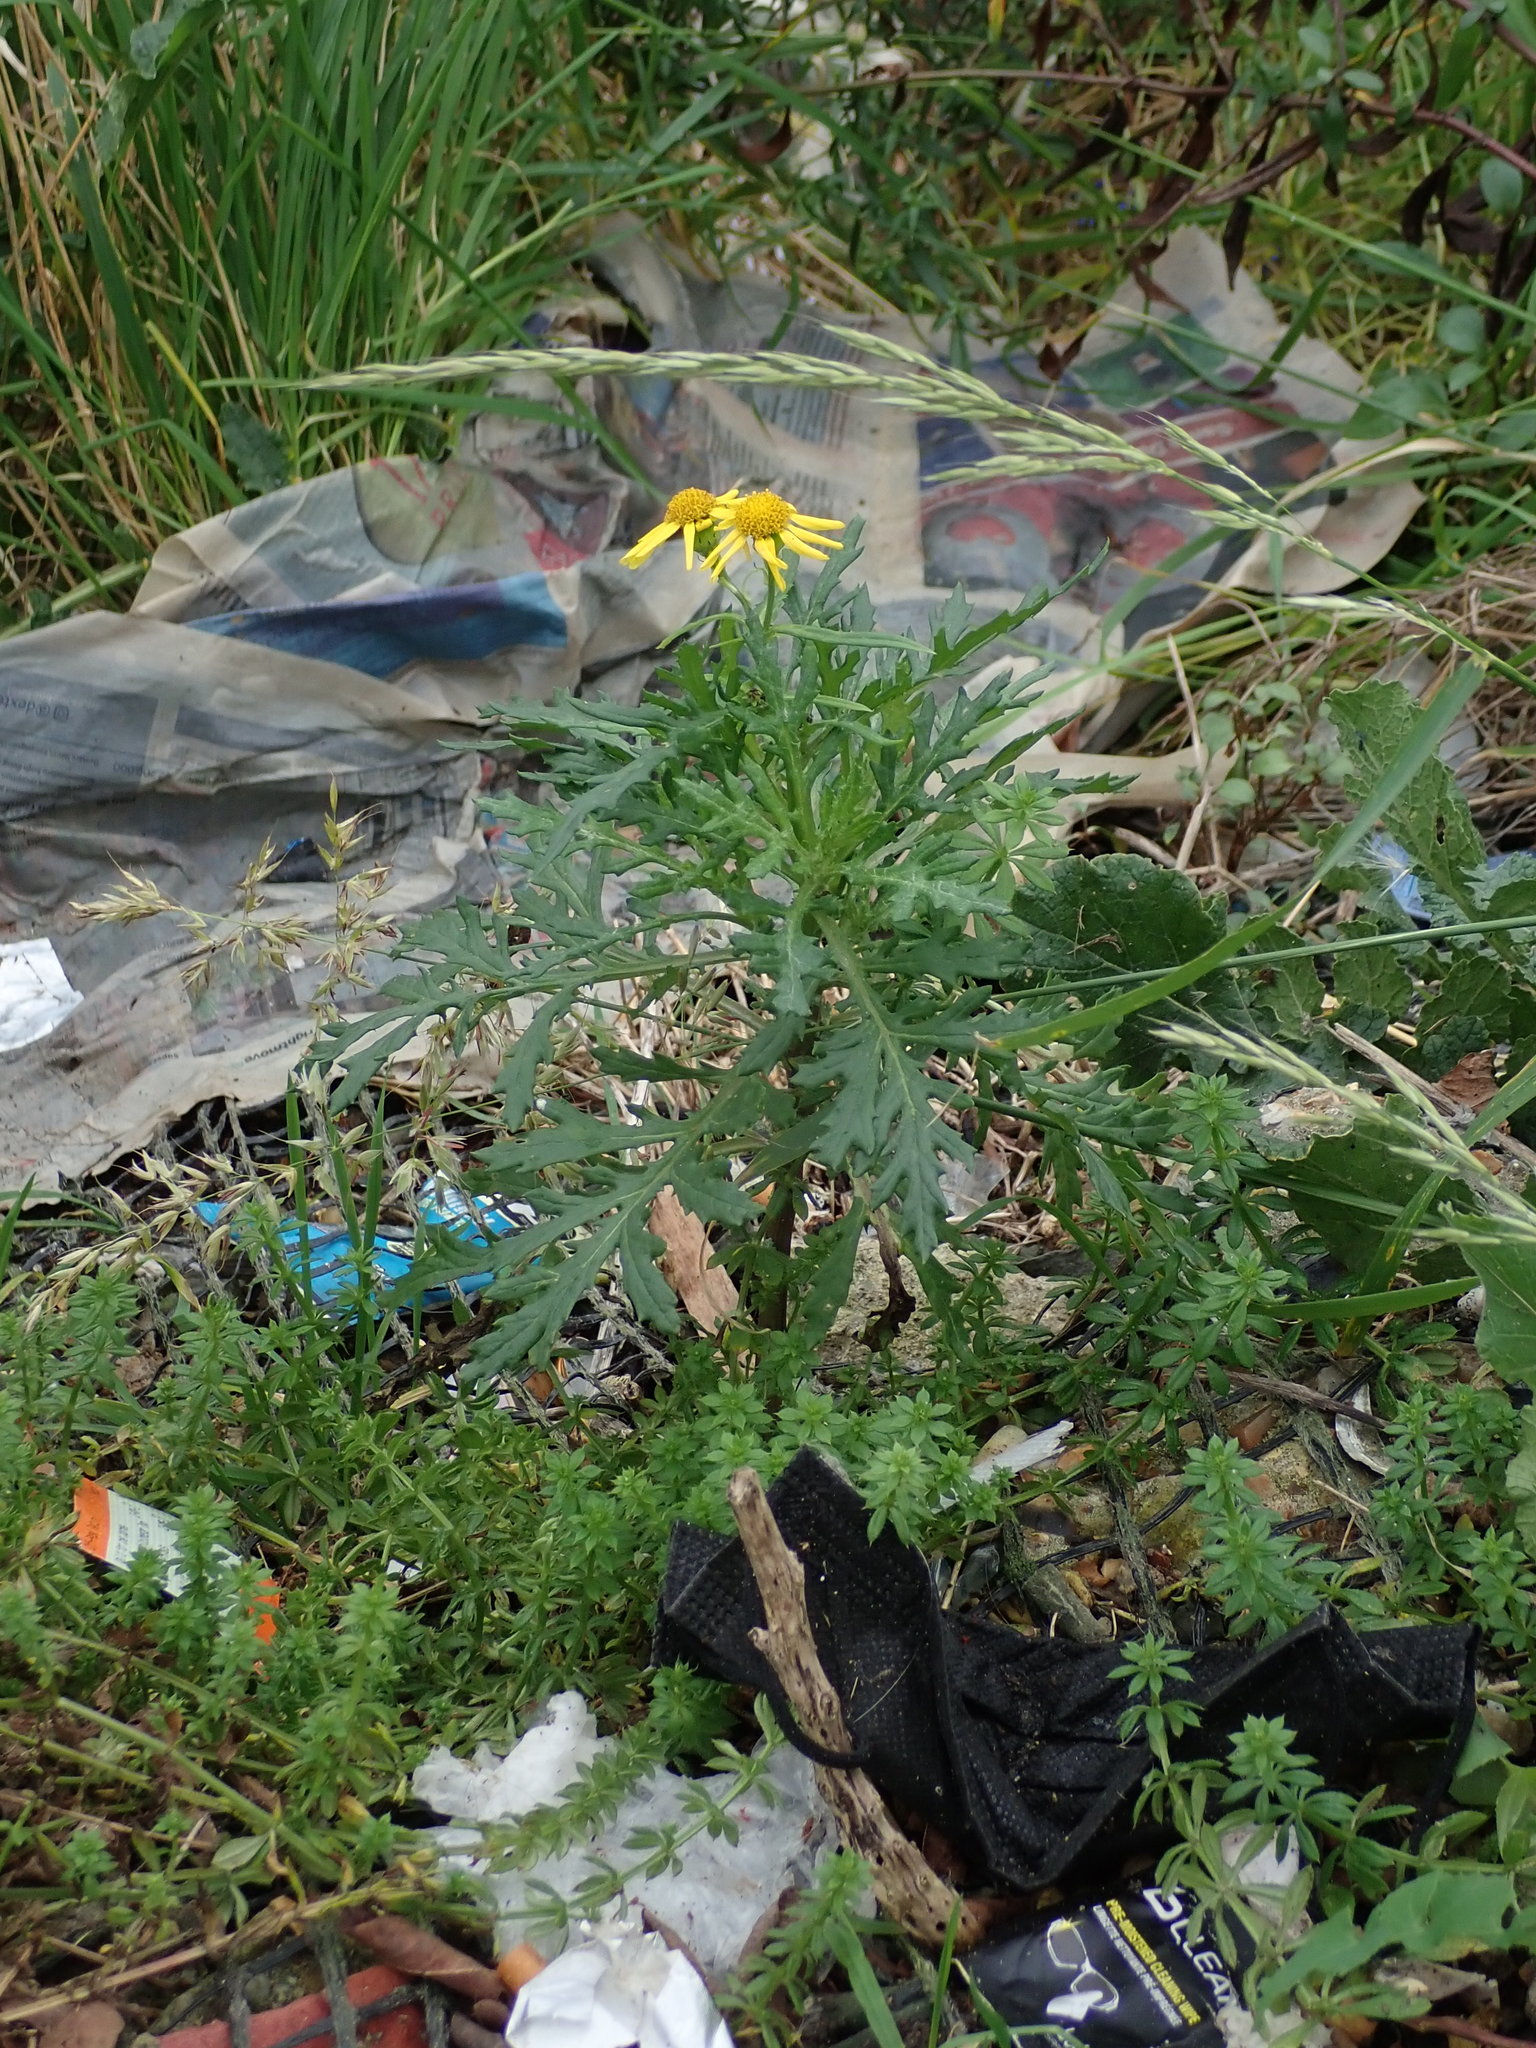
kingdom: Plantae
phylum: Tracheophyta
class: Magnoliopsida
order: Asterales
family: Asteraceae
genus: Senecio
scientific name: Senecio squalidus
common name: Oxford ragwort
